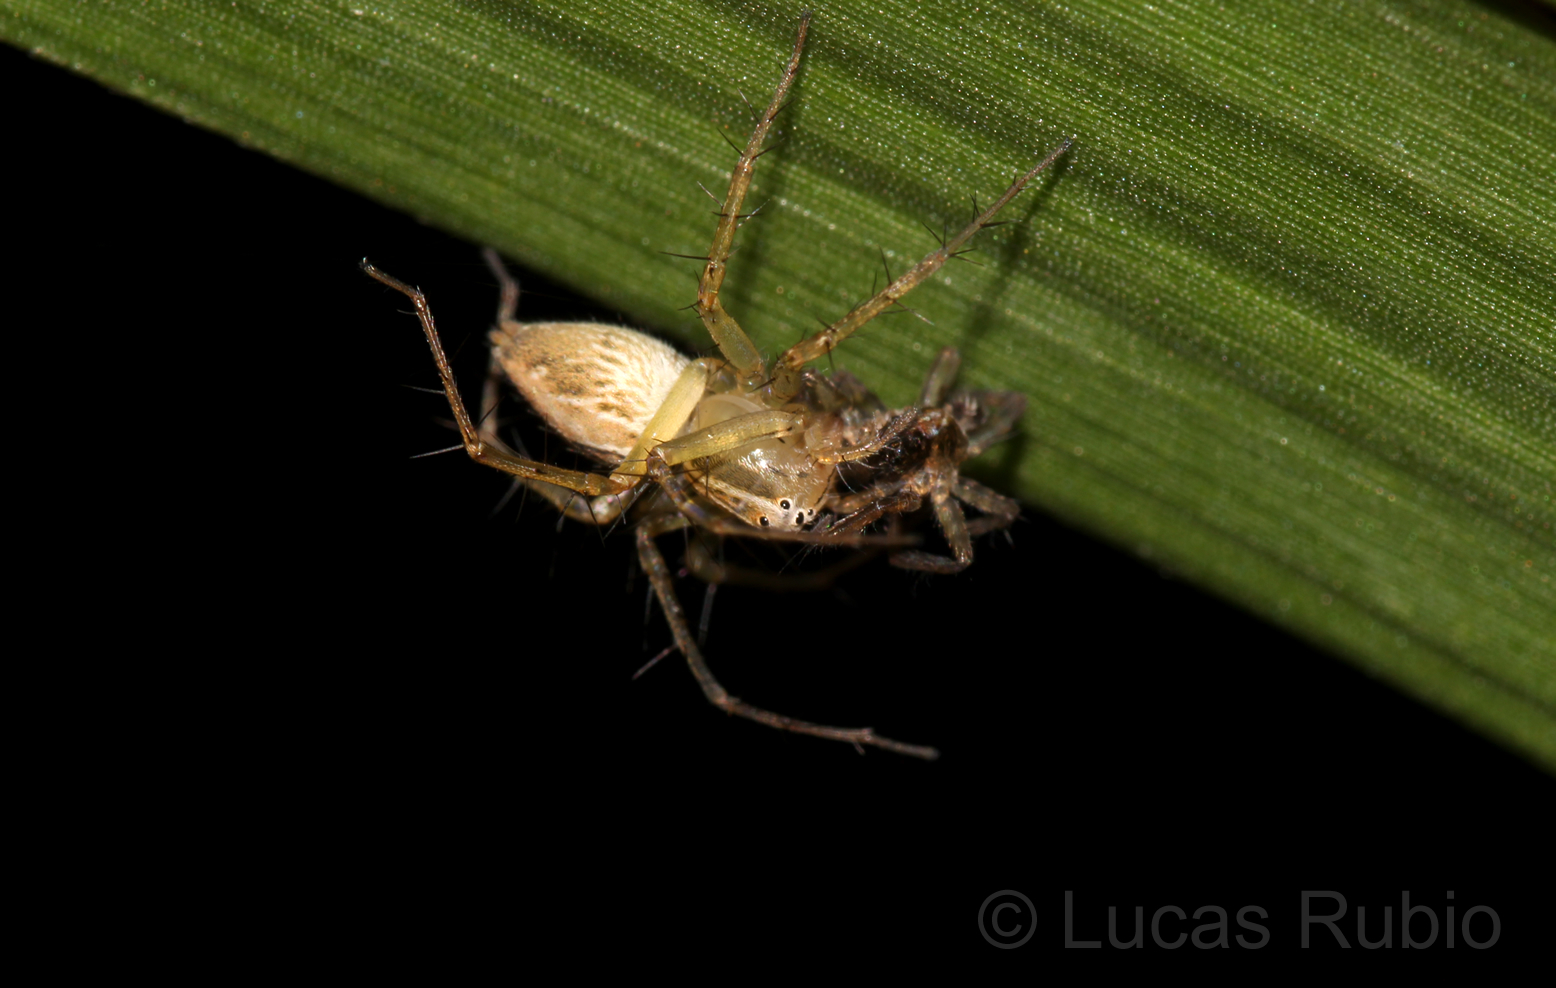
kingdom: Animalia
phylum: Arthropoda
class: Arachnida
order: Araneae
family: Oxyopidae
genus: Oxyopes
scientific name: Oxyopes salticus
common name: Lynx spiders
